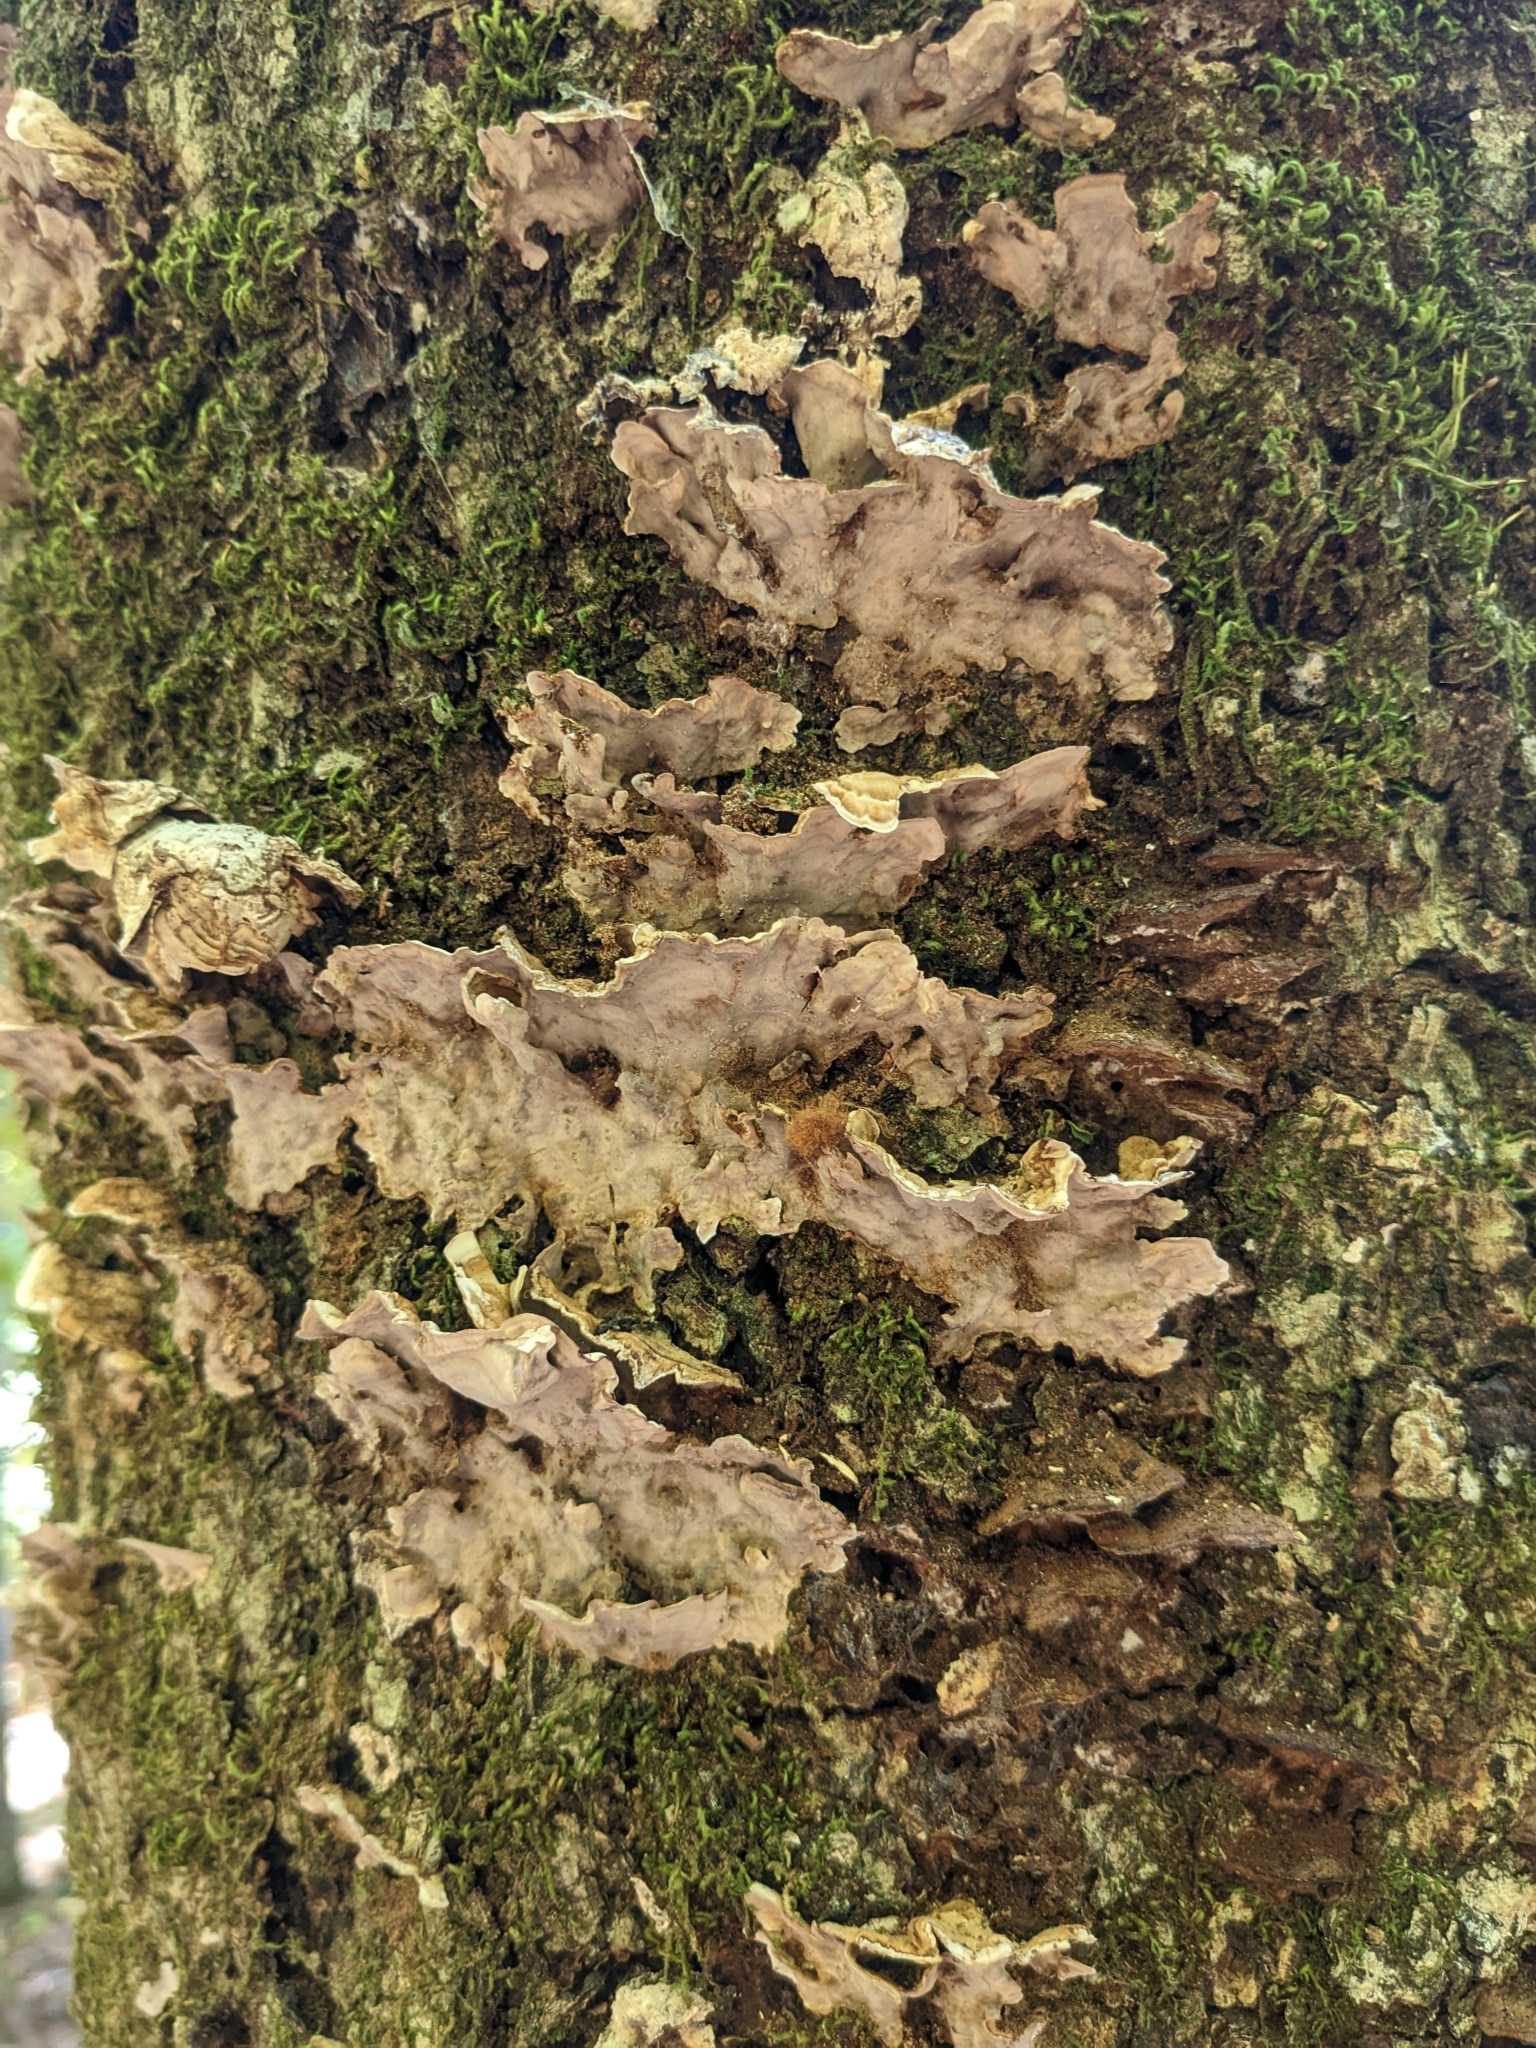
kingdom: Fungi
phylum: Basidiomycota
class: Agaricomycetes
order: Russulales
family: Stereaceae
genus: Stereum
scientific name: Stereum lobatum
